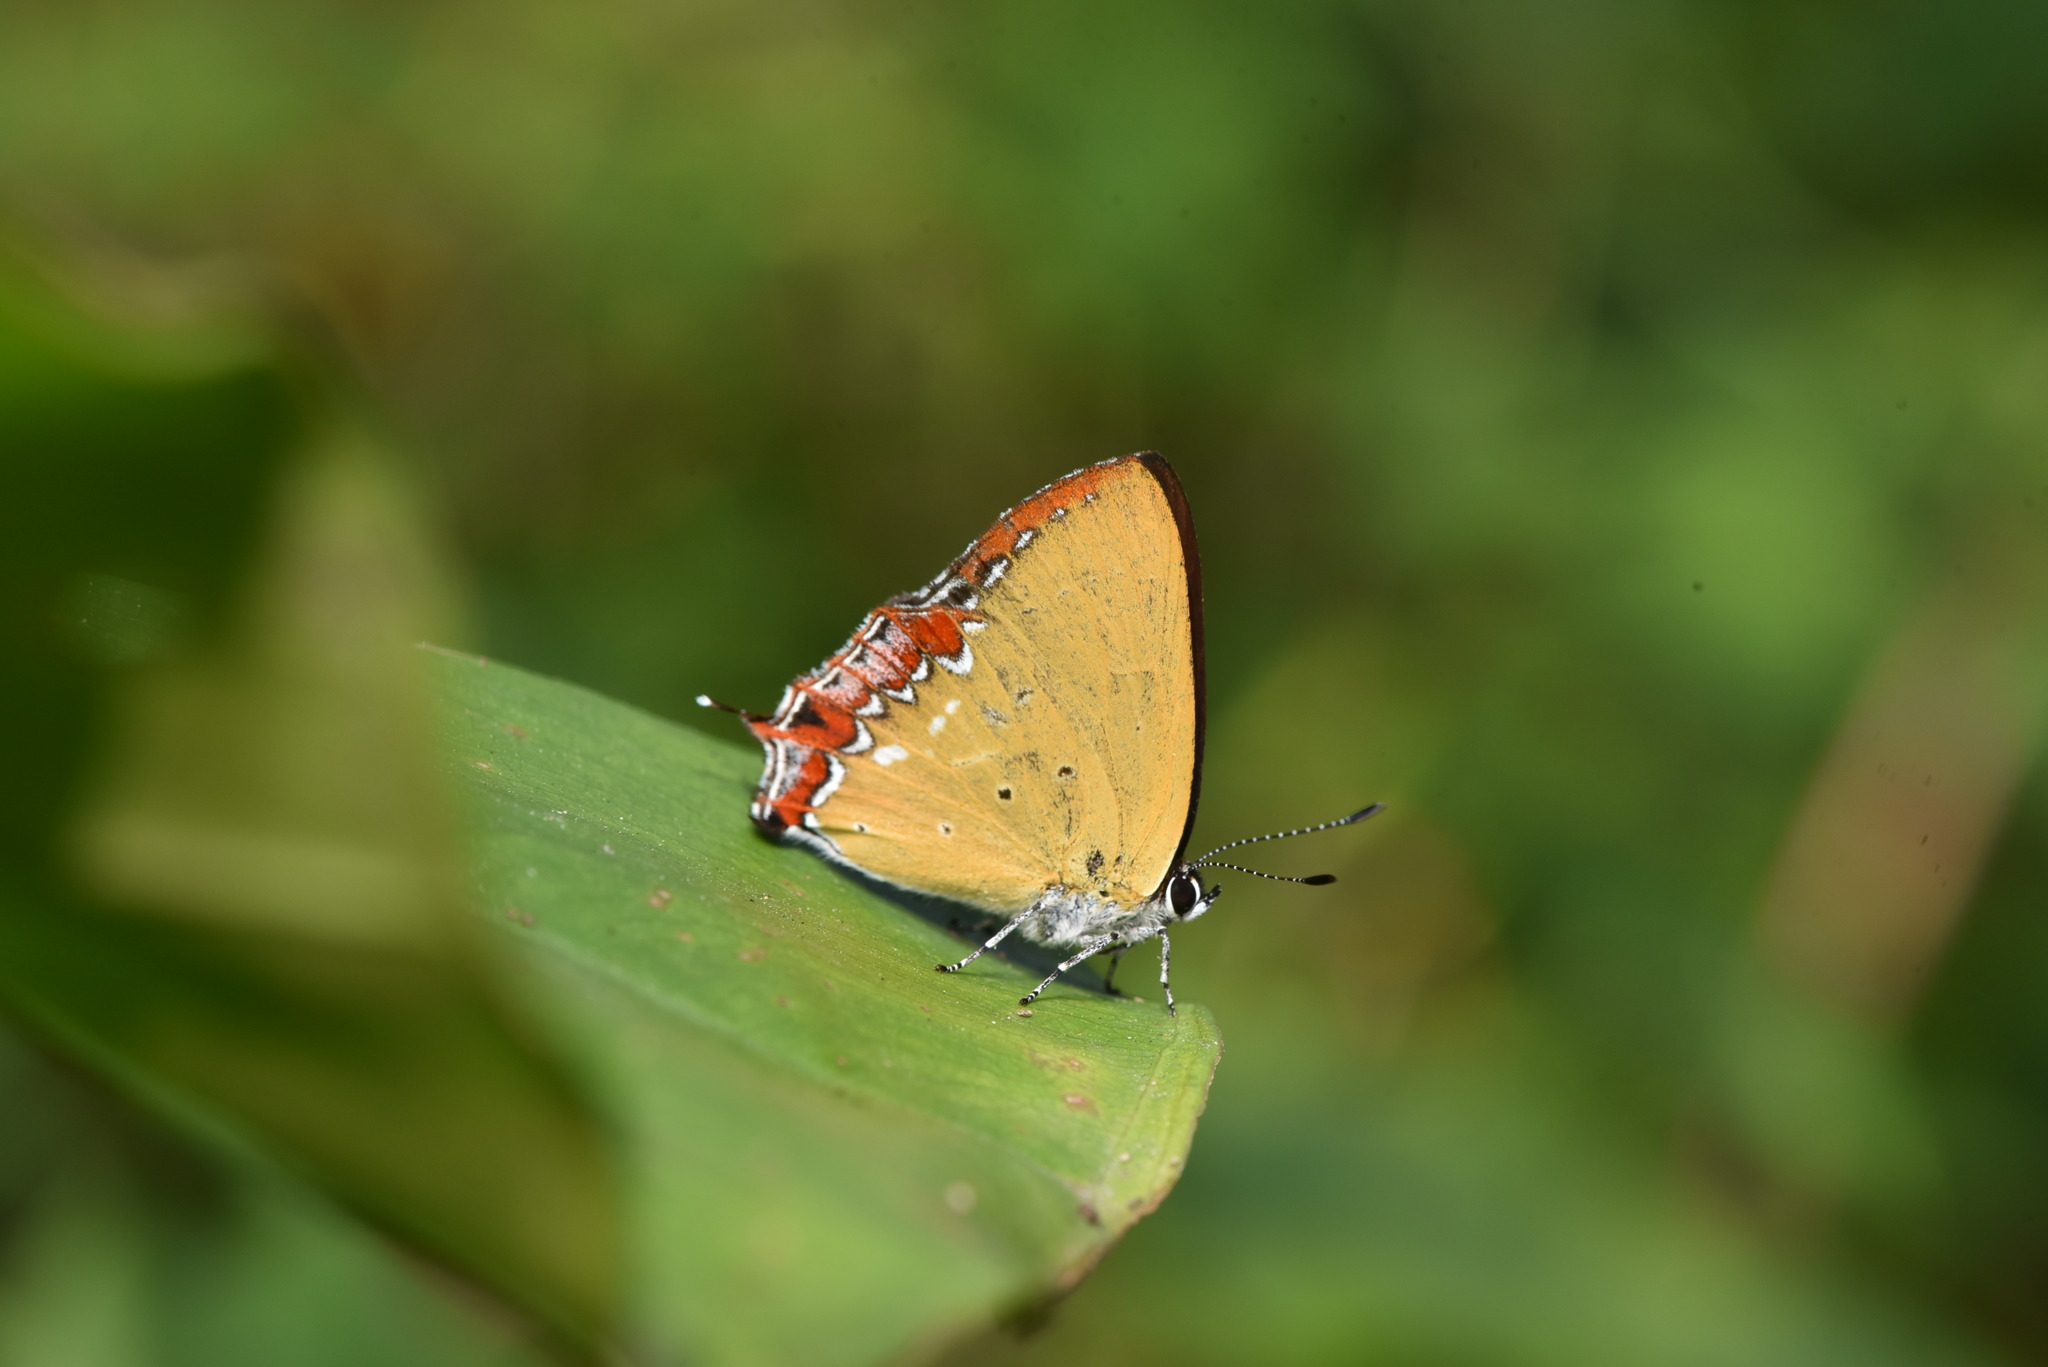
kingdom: Animalia
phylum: Arthropoda
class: Insecta
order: Lepidoptera
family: Lycaenidae
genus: Heliophorus
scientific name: Heliophorus ila
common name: Restricted purple sapphire
